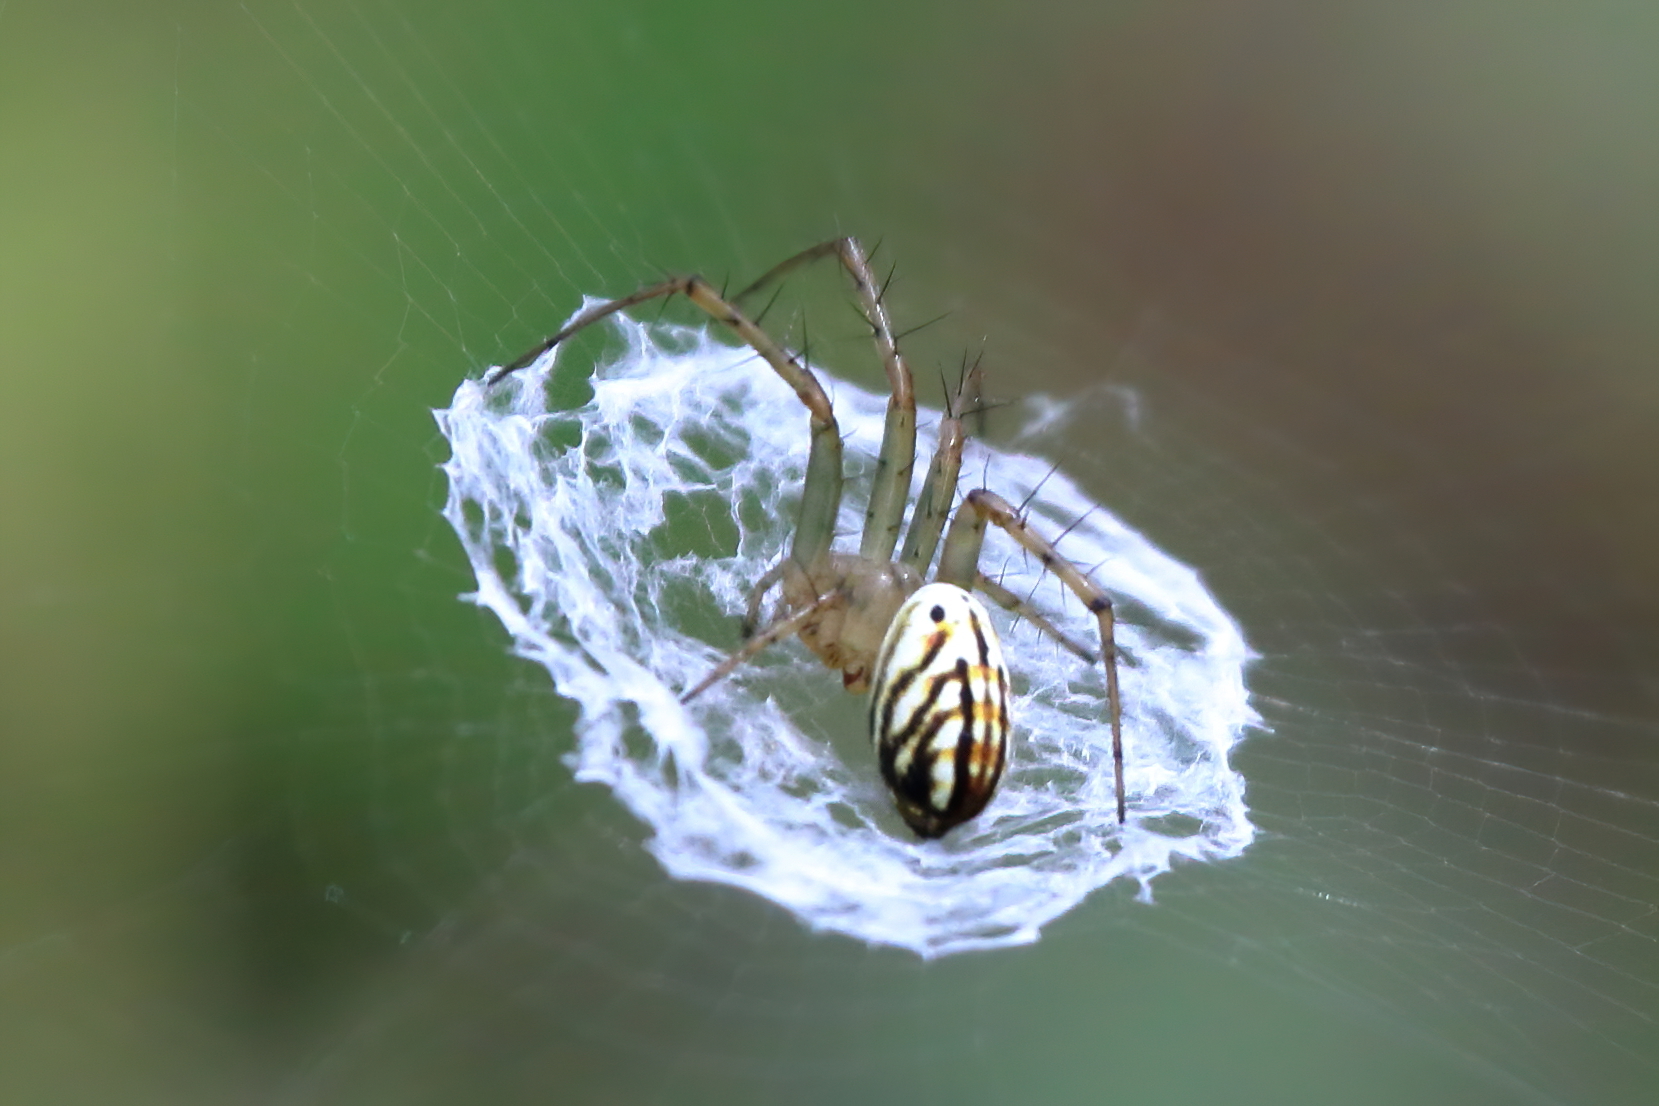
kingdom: Animalia
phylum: Arthropoda
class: Arachnida
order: Araneae
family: Araneidae
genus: Mangora
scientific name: Mangora gibberosa
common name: Lined orbweaver
